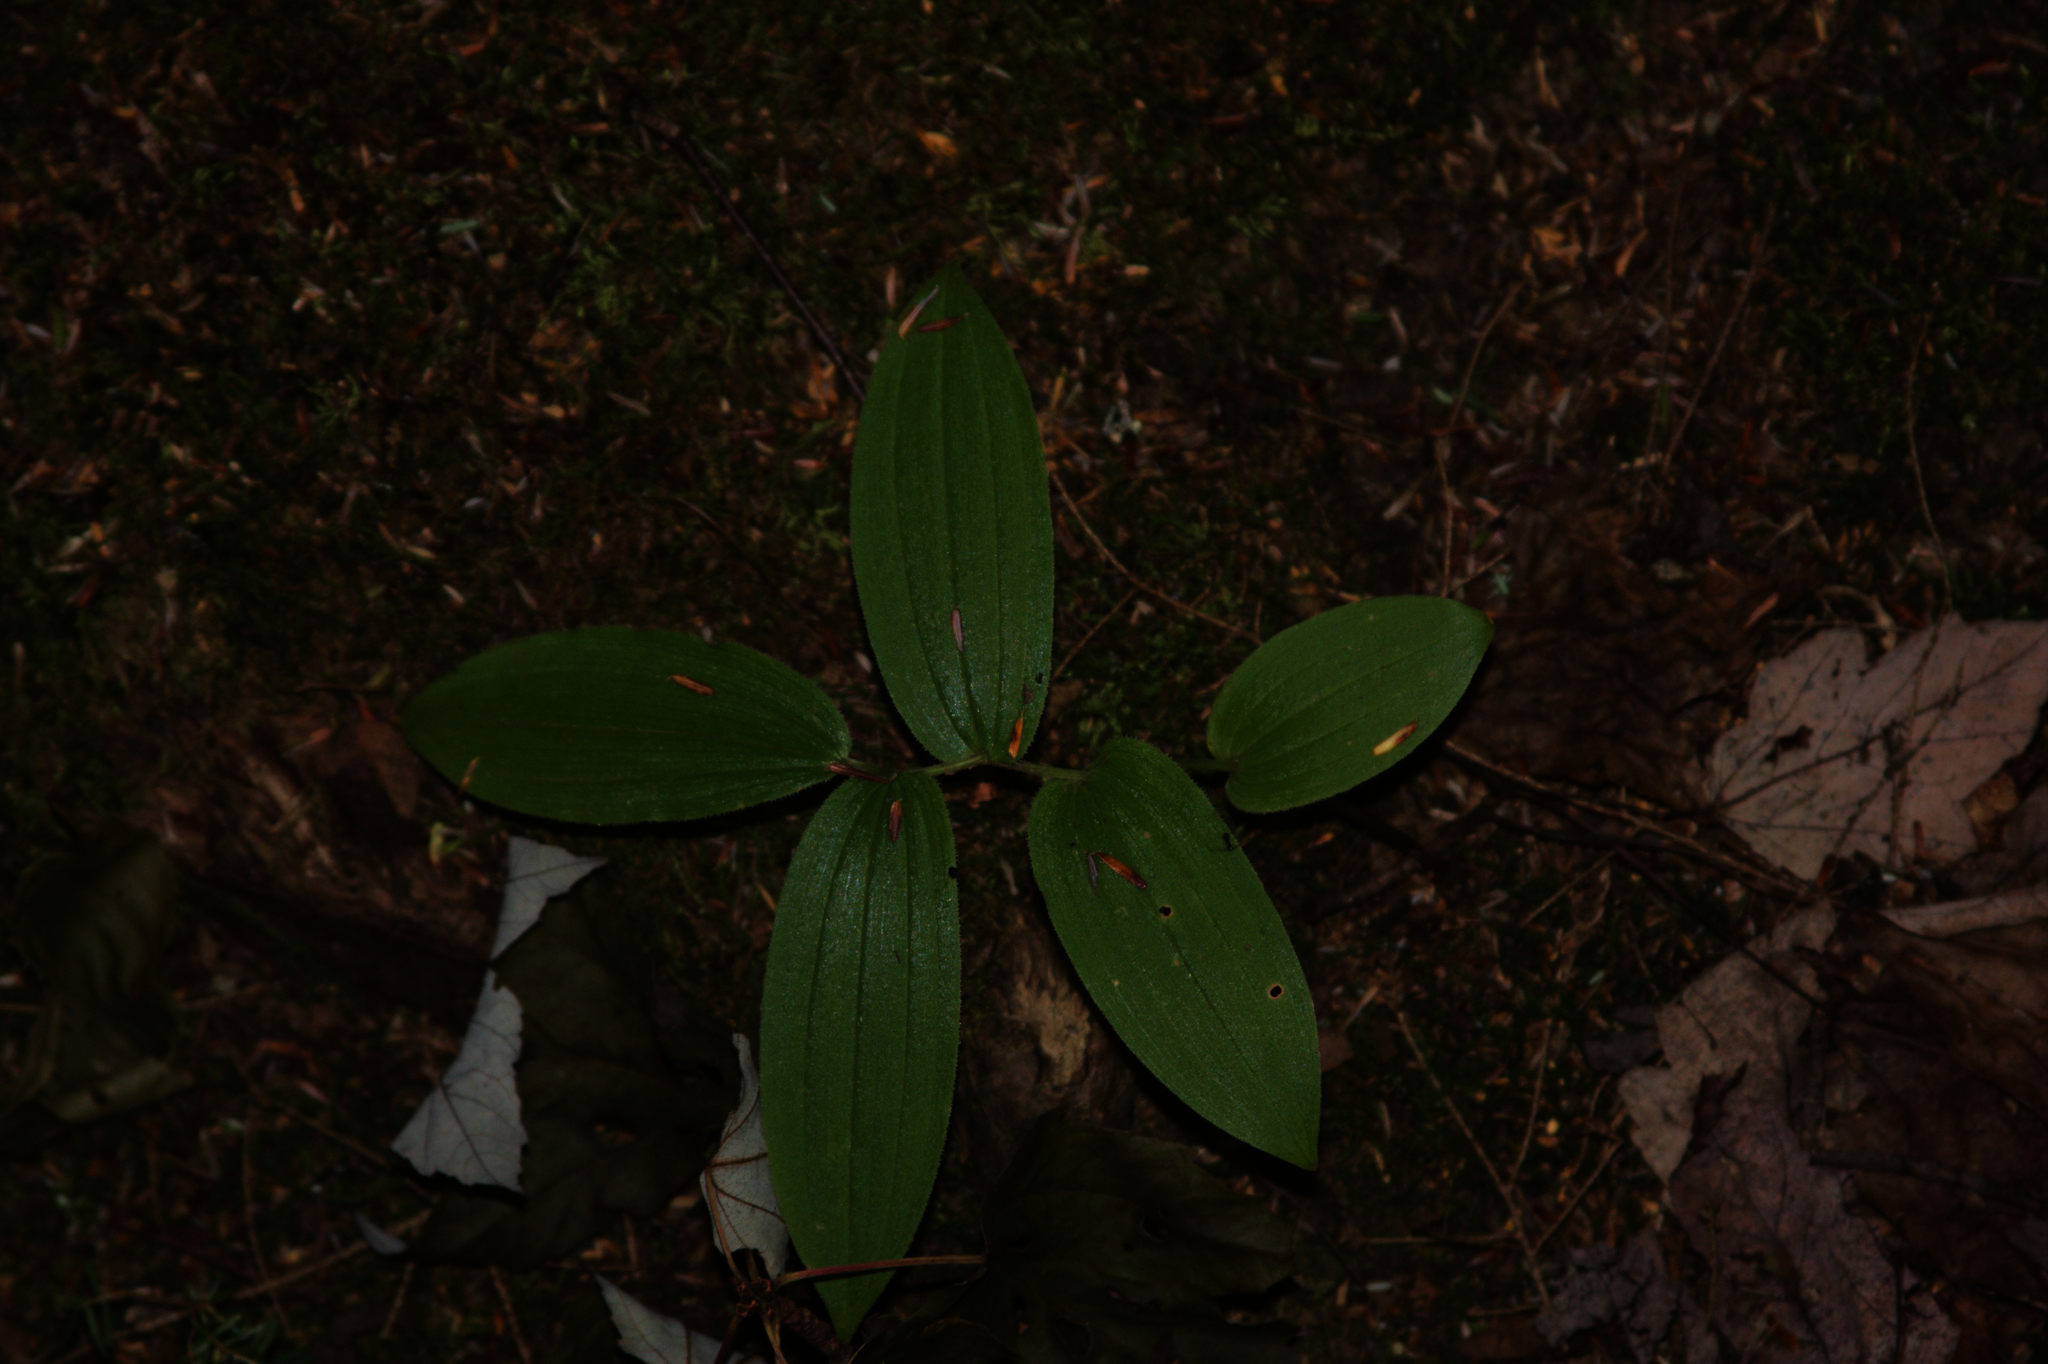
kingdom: Plantae
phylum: Tracheophyta
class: Liliopsida
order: Liliales
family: Liliaceae
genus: Streptopus
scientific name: Streptopus lanceolatus
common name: Rose mandarin
